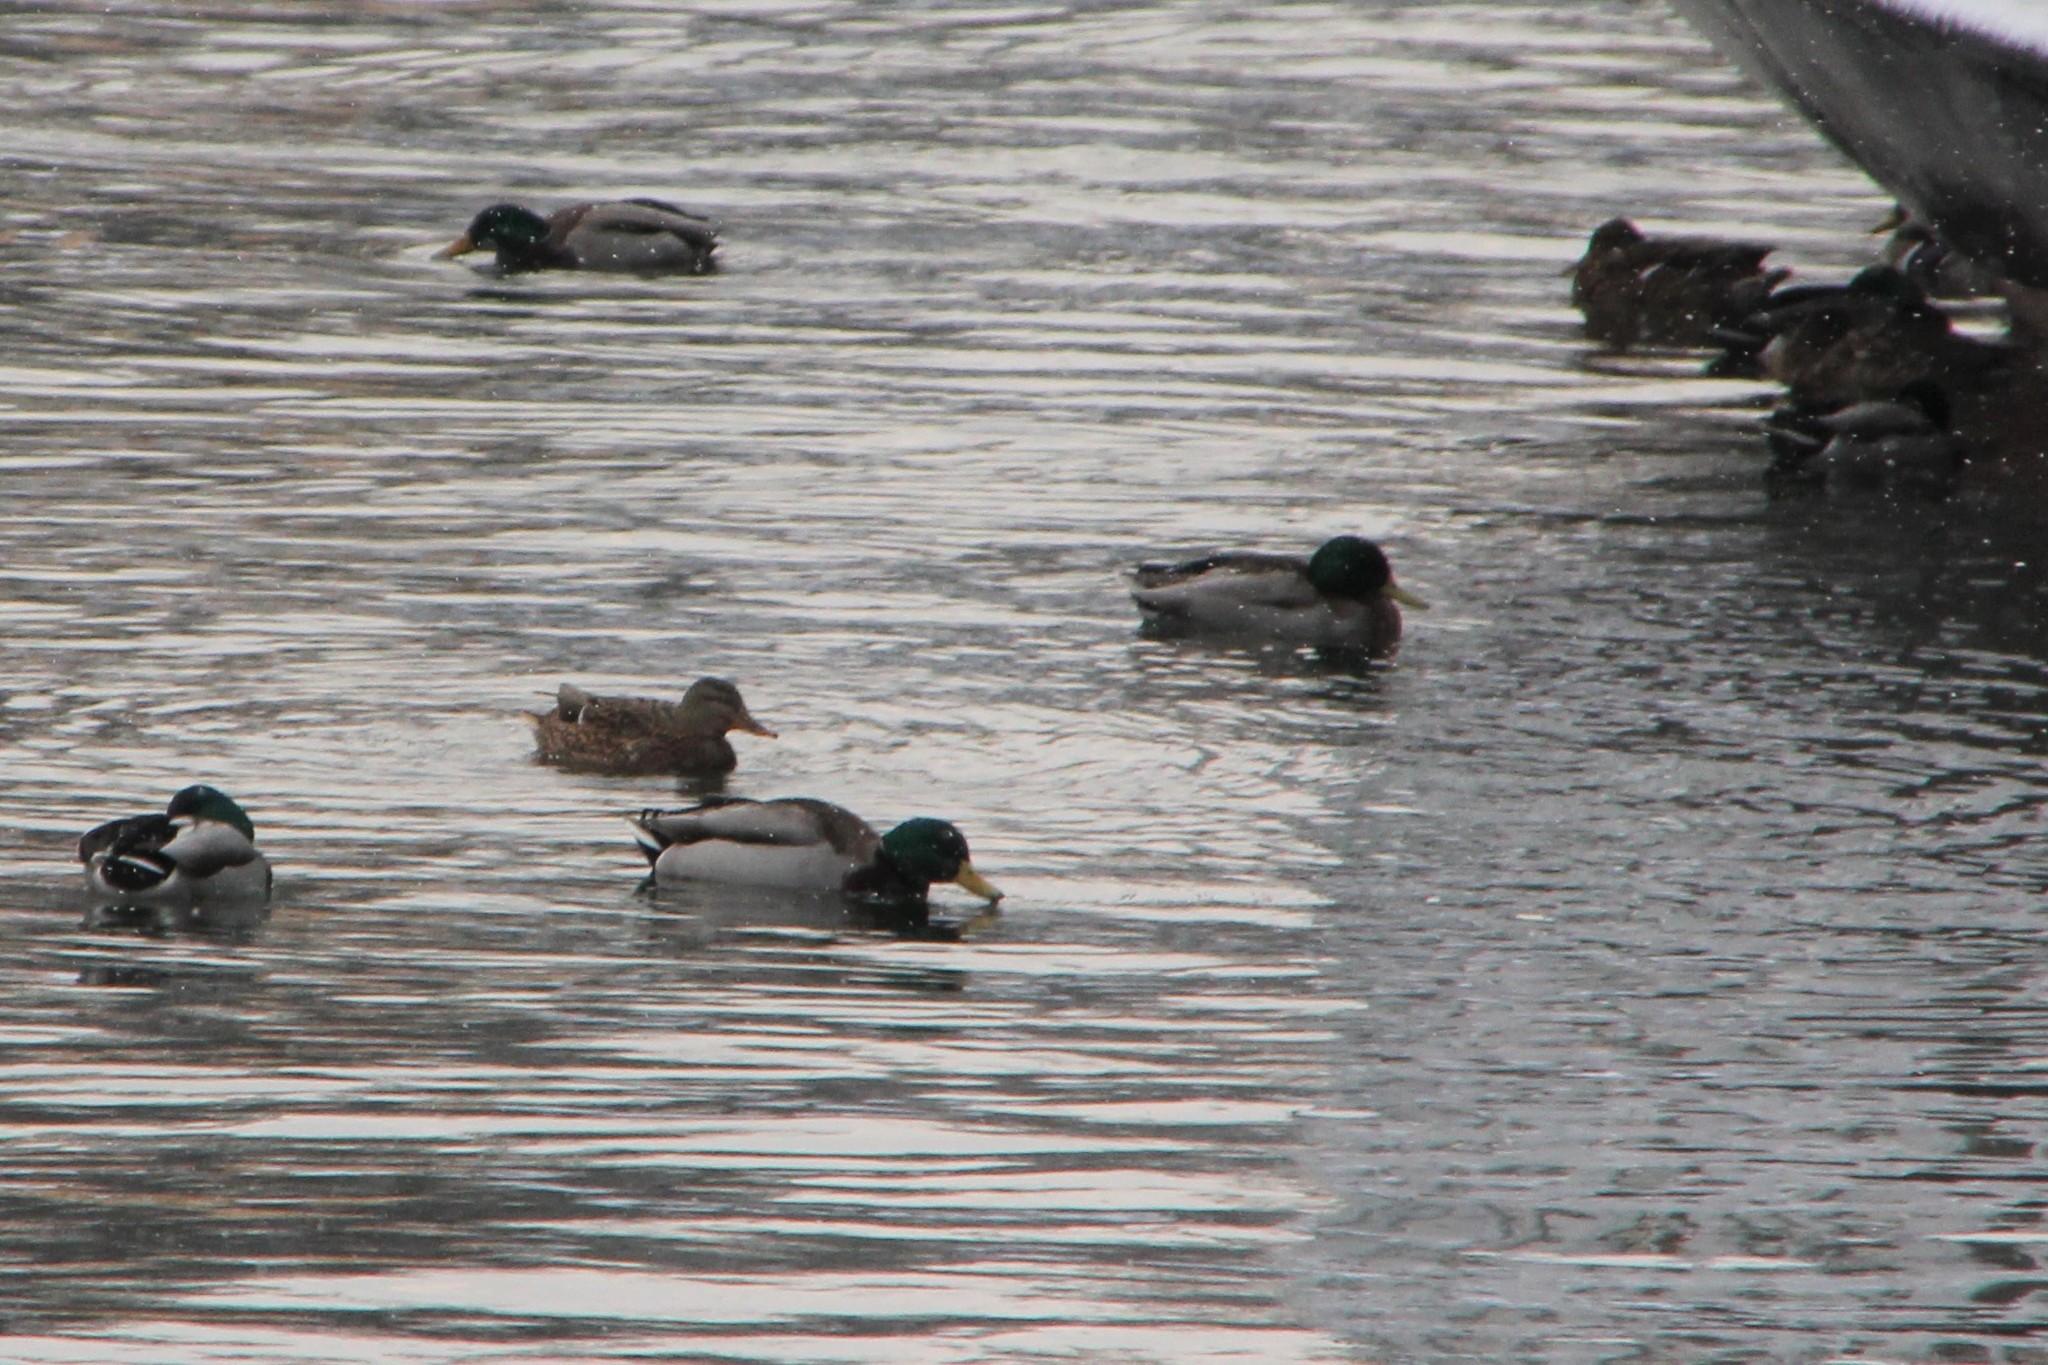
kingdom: Animalia
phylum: Chordata
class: Aves
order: Anseriformes
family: Anatidae
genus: Anas
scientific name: Anas platyrhynchos
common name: Mallard
